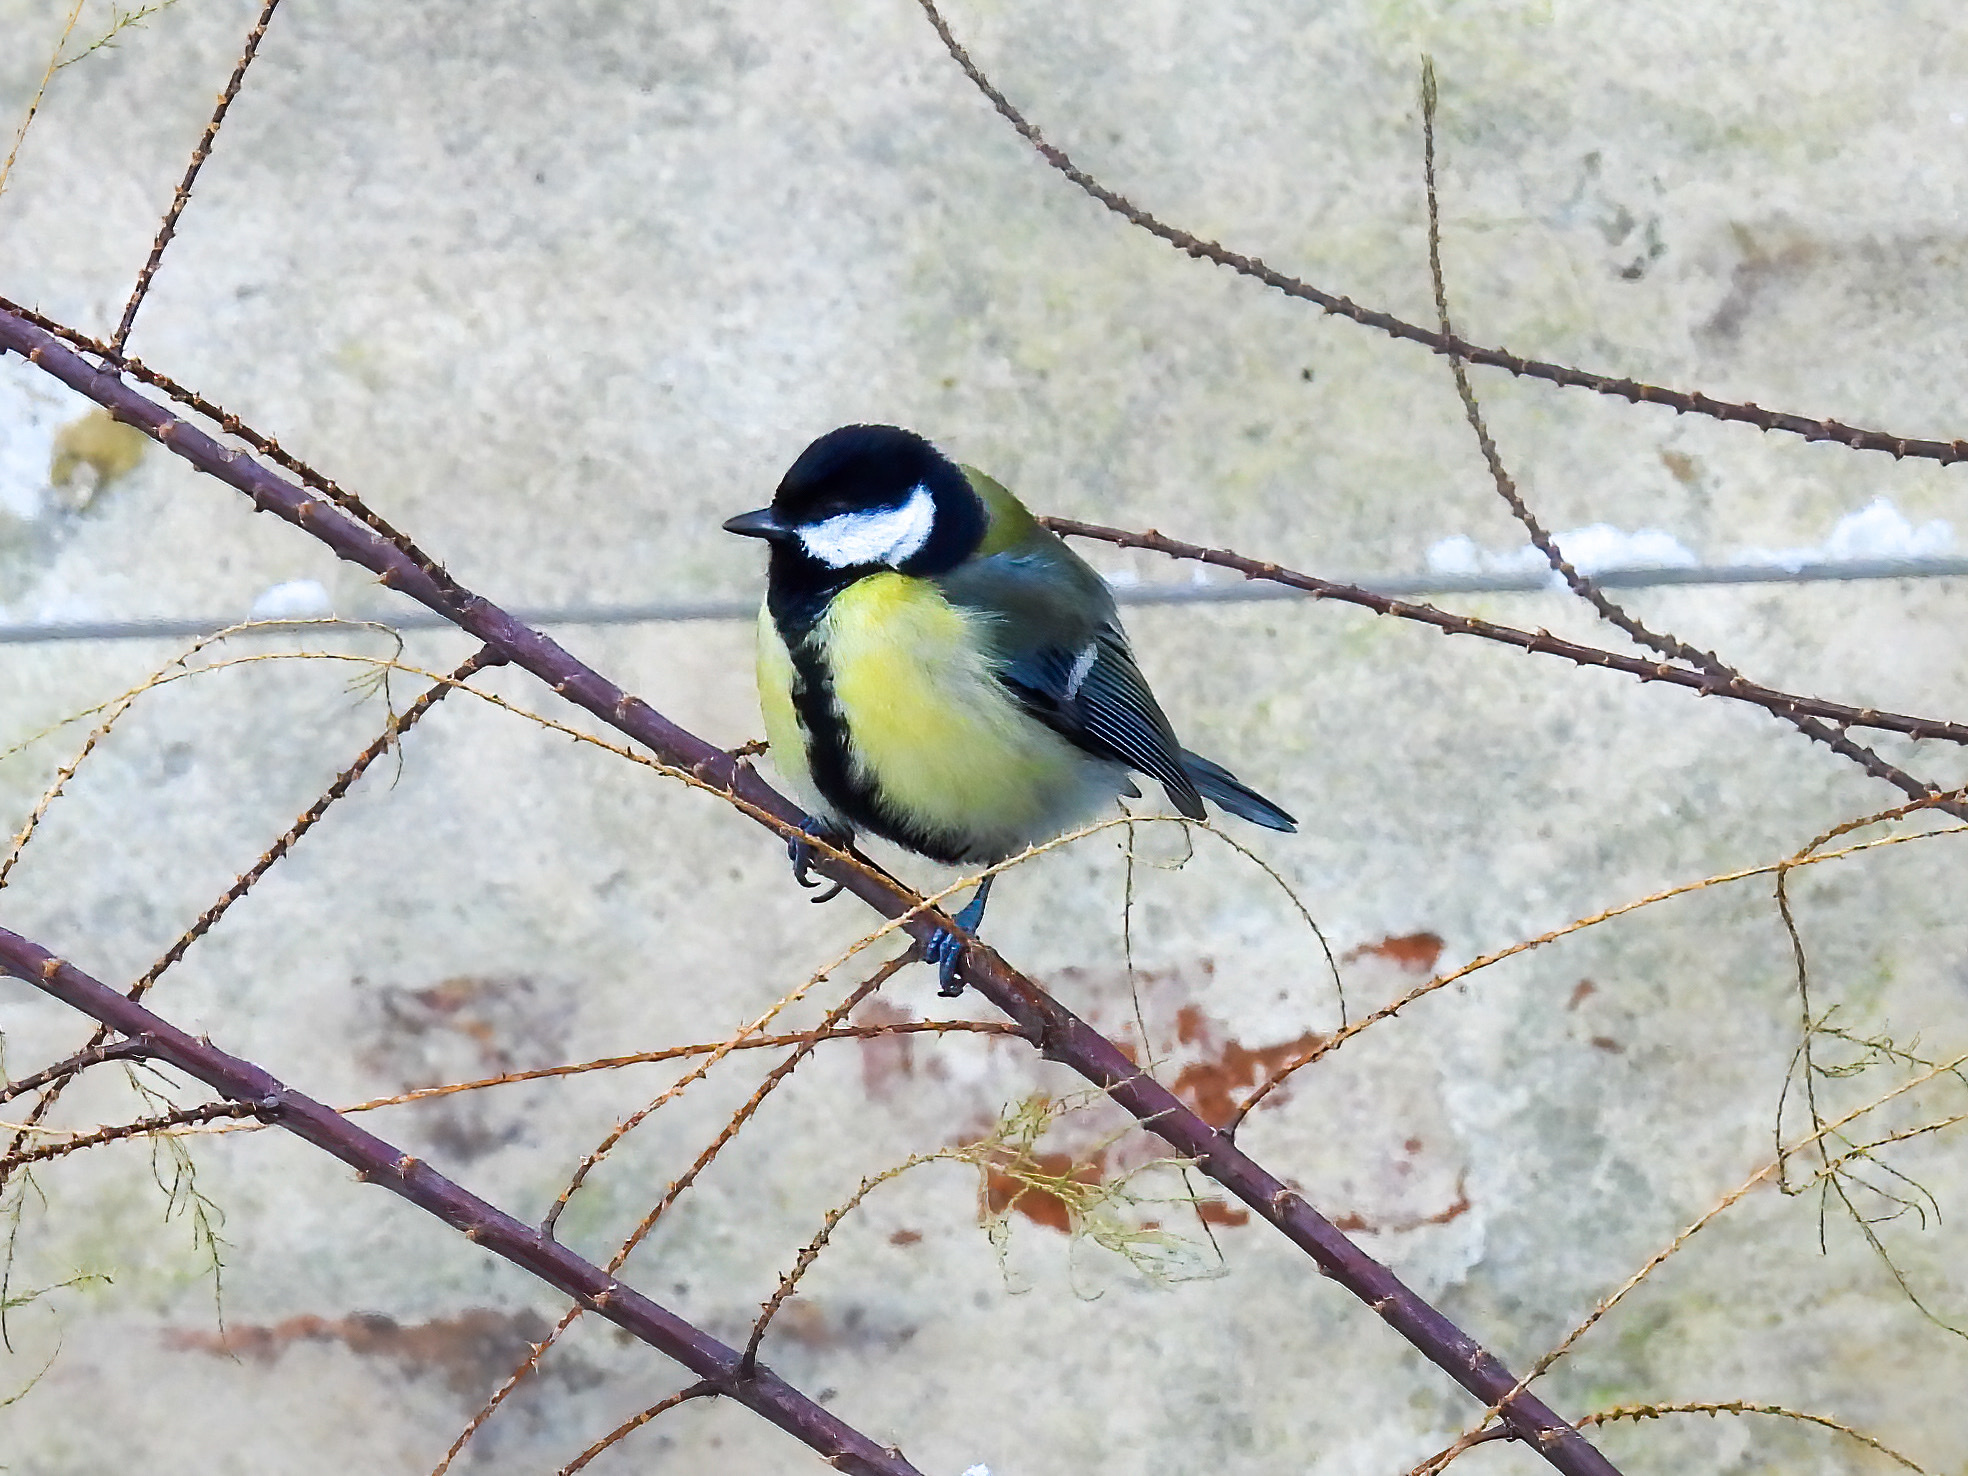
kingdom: Animalia
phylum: Chordata
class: Aves
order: Passeriformes
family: Paridae
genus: Parus
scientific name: Parus major
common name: Great tit
